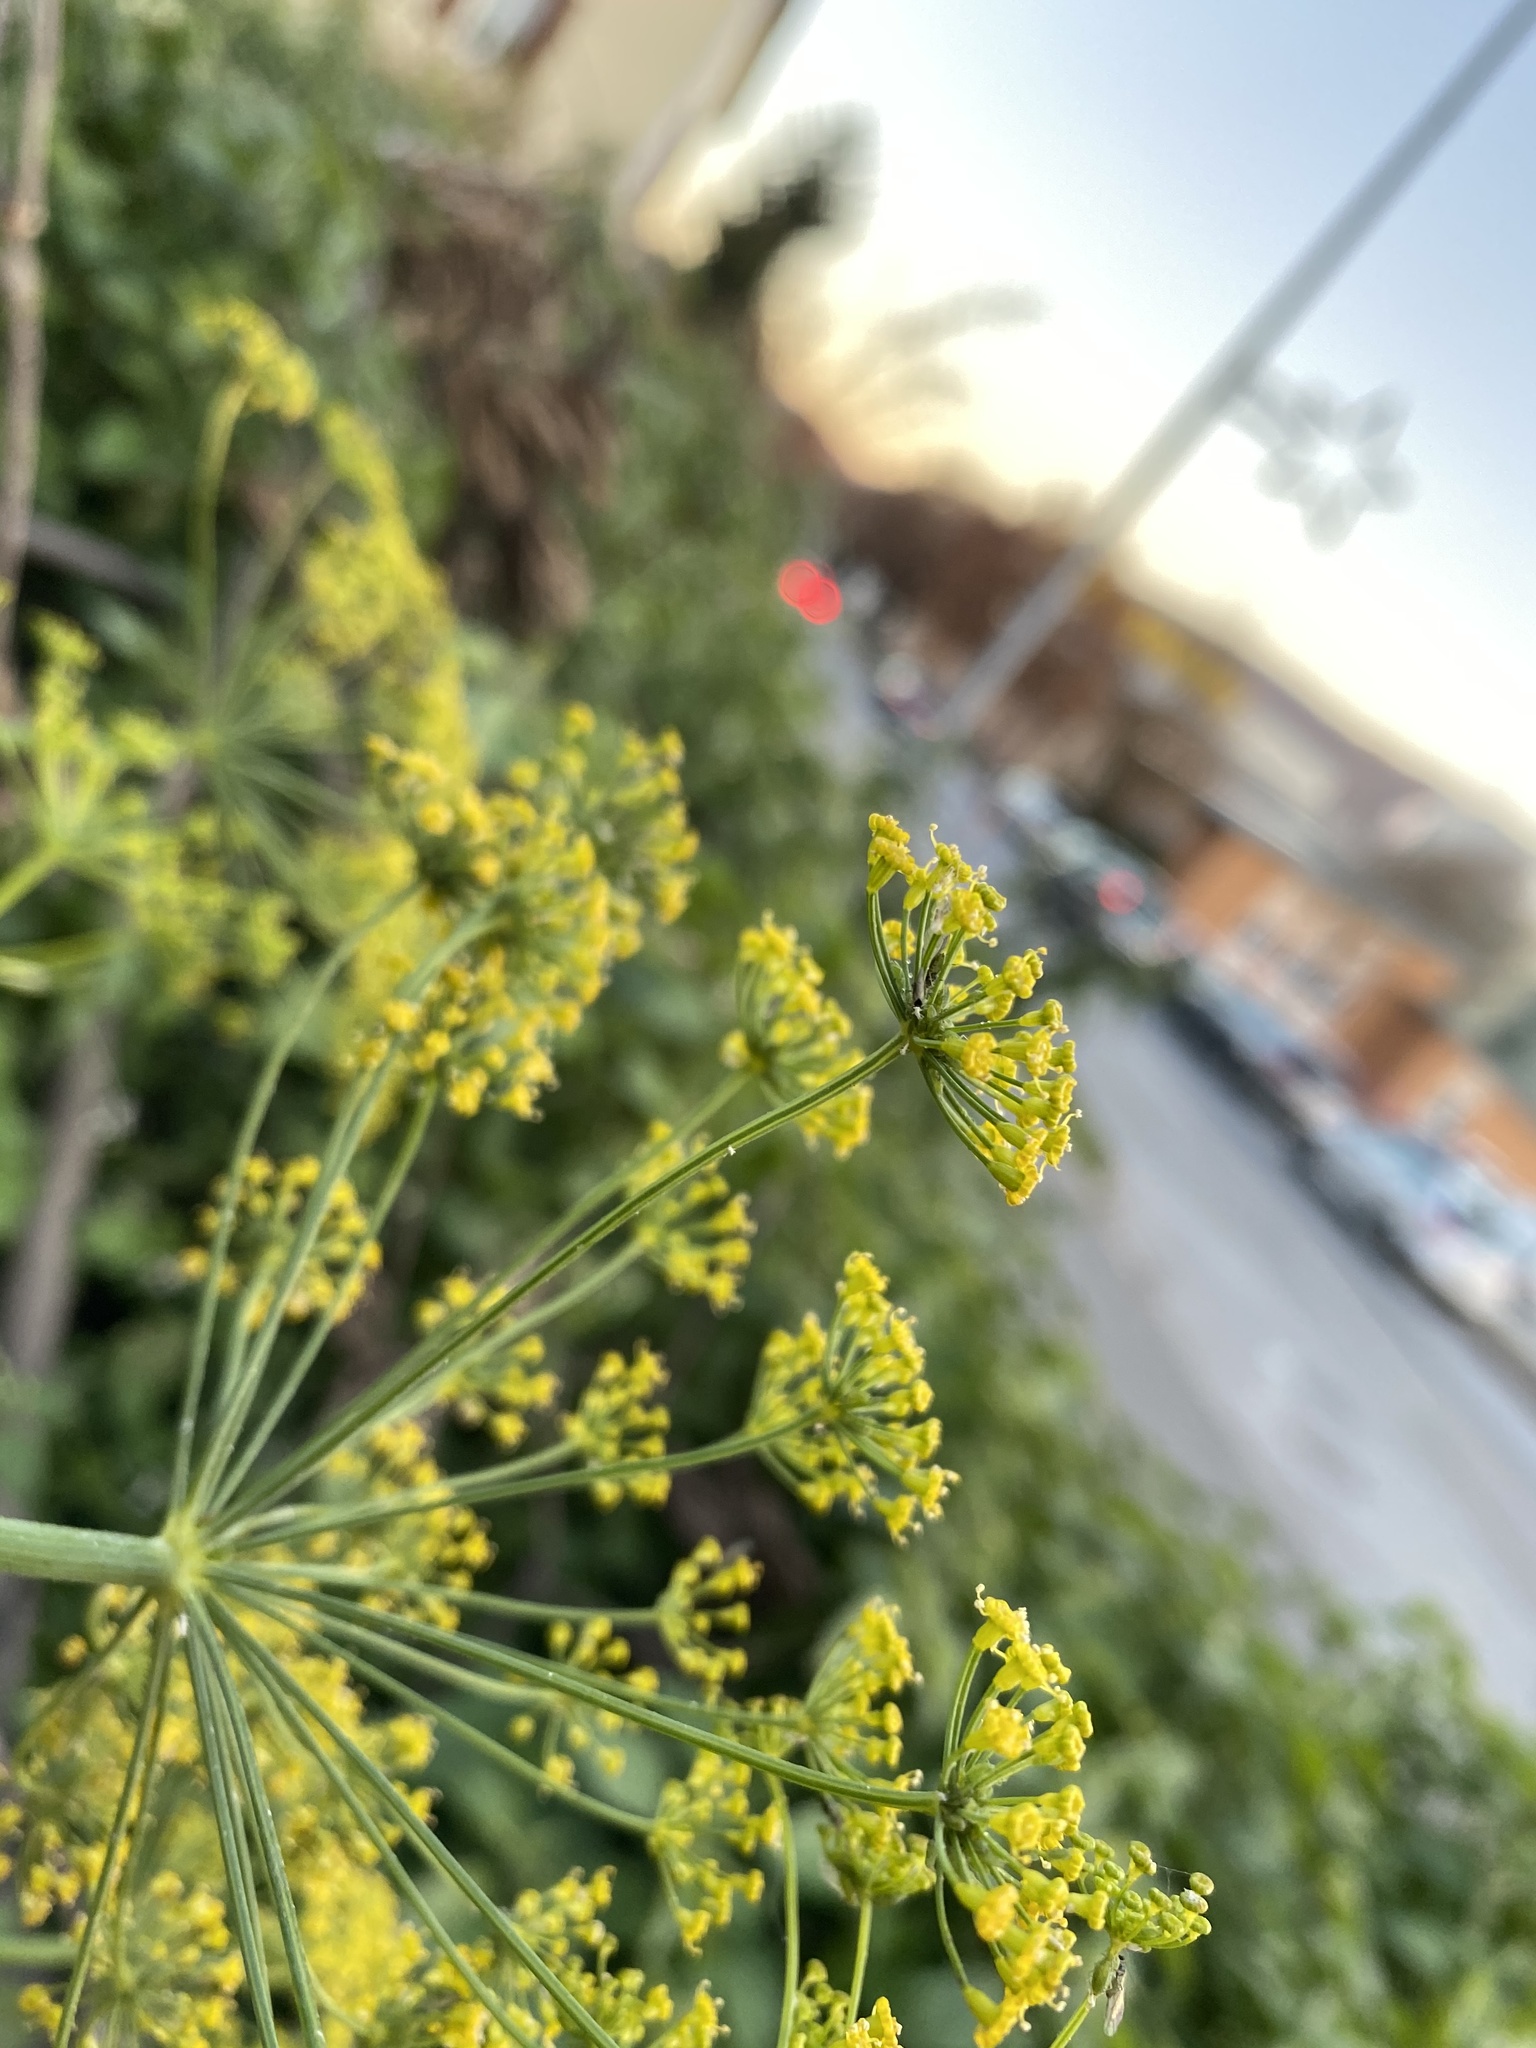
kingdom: Plantae
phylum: Tracheophyta
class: Magnoliopsida
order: Apiales
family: Apiaceae
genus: Anethum
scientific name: Anethum graveolens
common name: Dill
